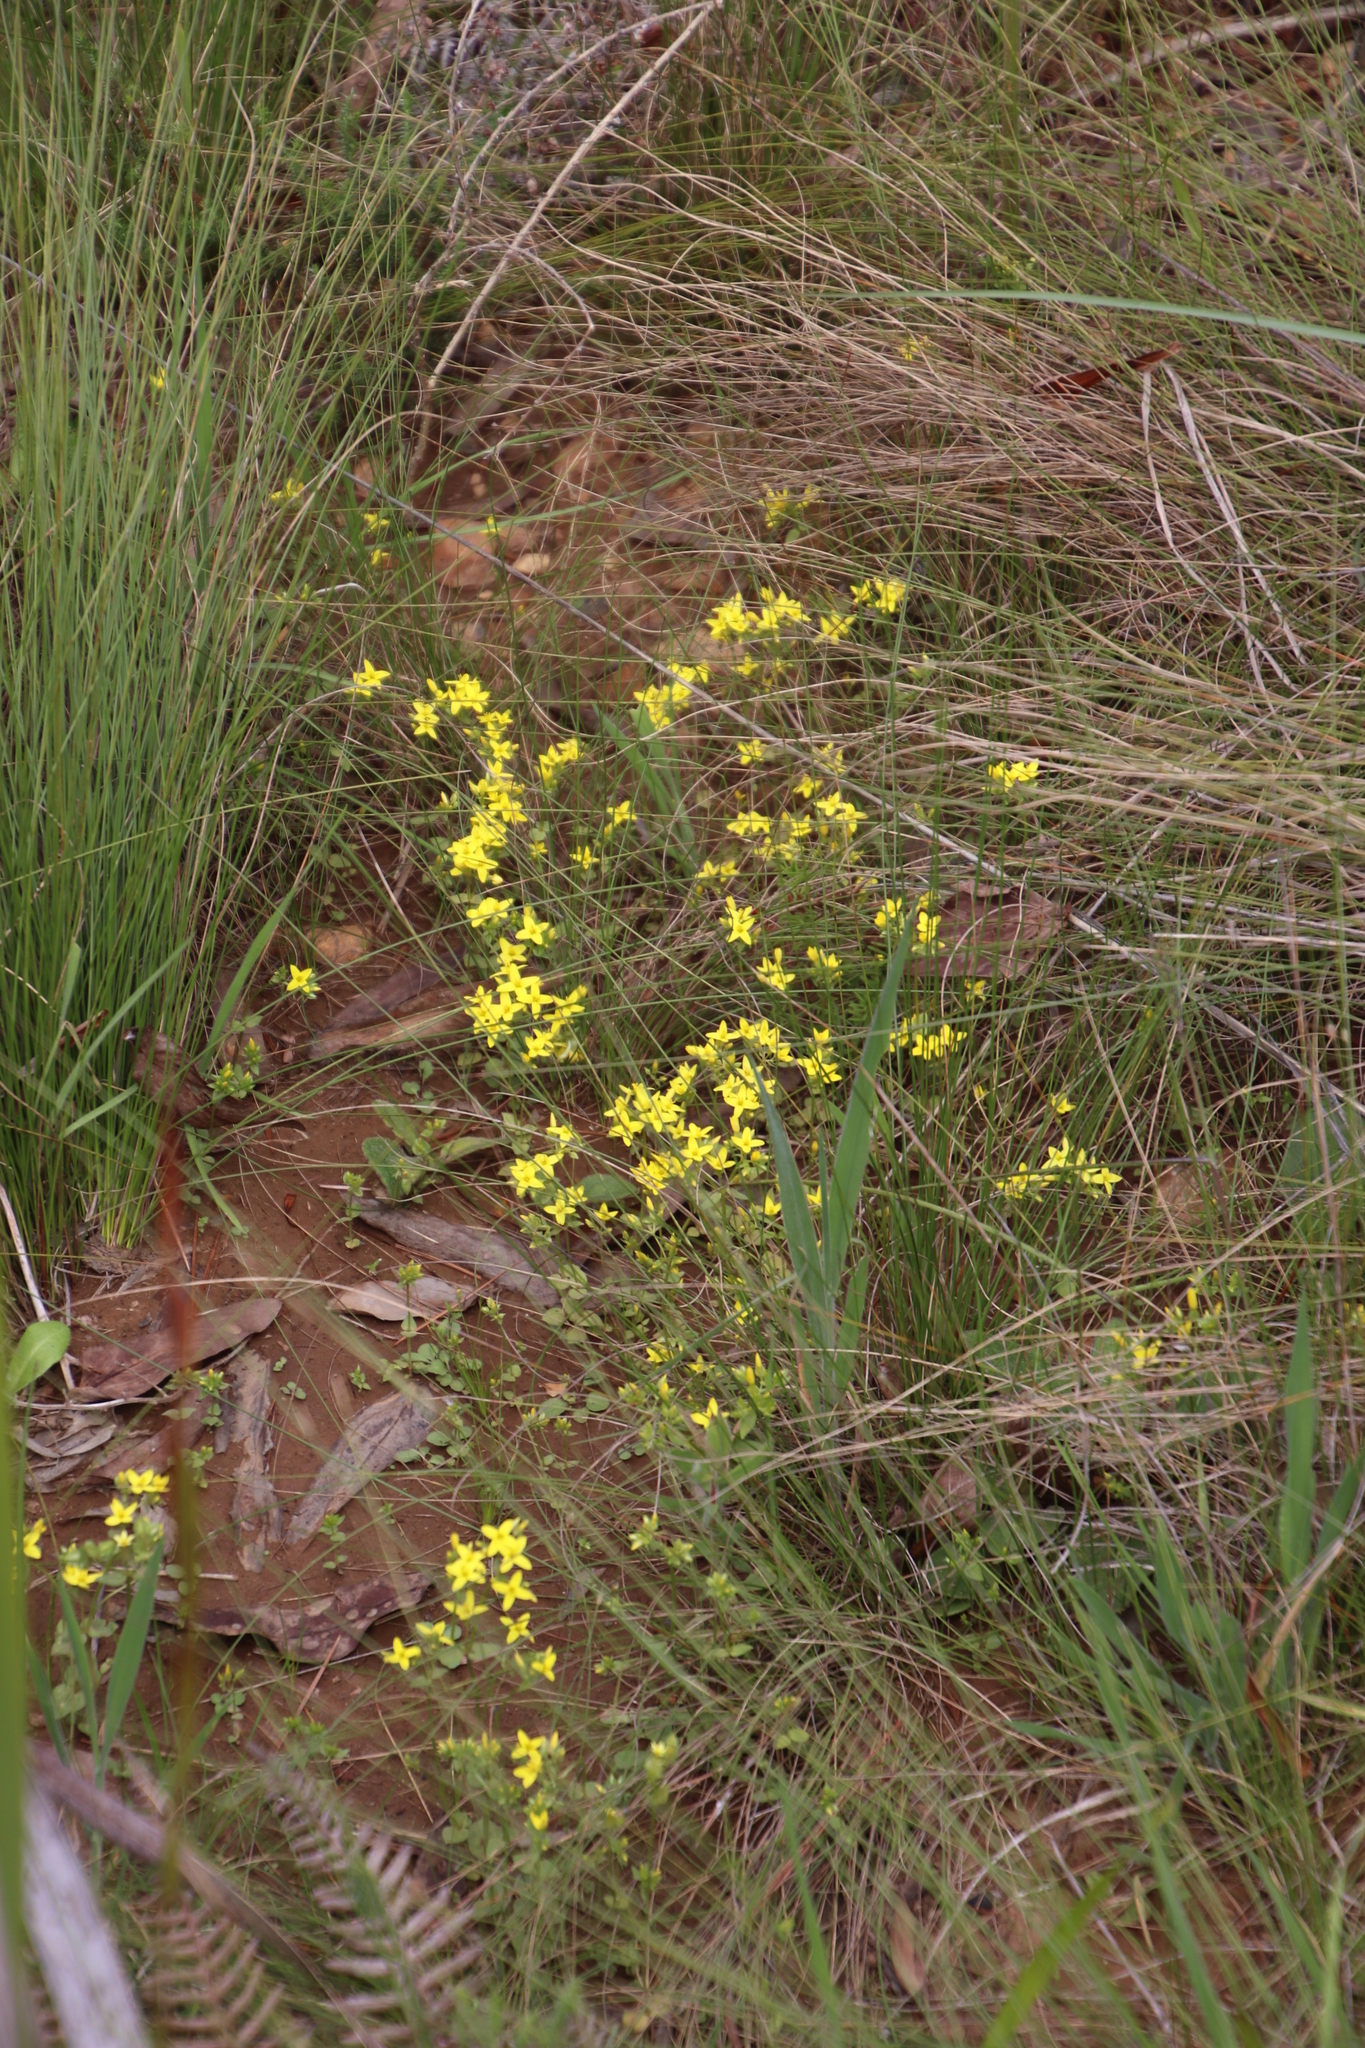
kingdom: Plantae
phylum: Tracheophyta
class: Magnoliopsida
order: Gentianales
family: Gentianaceae
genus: Sebaea
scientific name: Sebaea aurea
